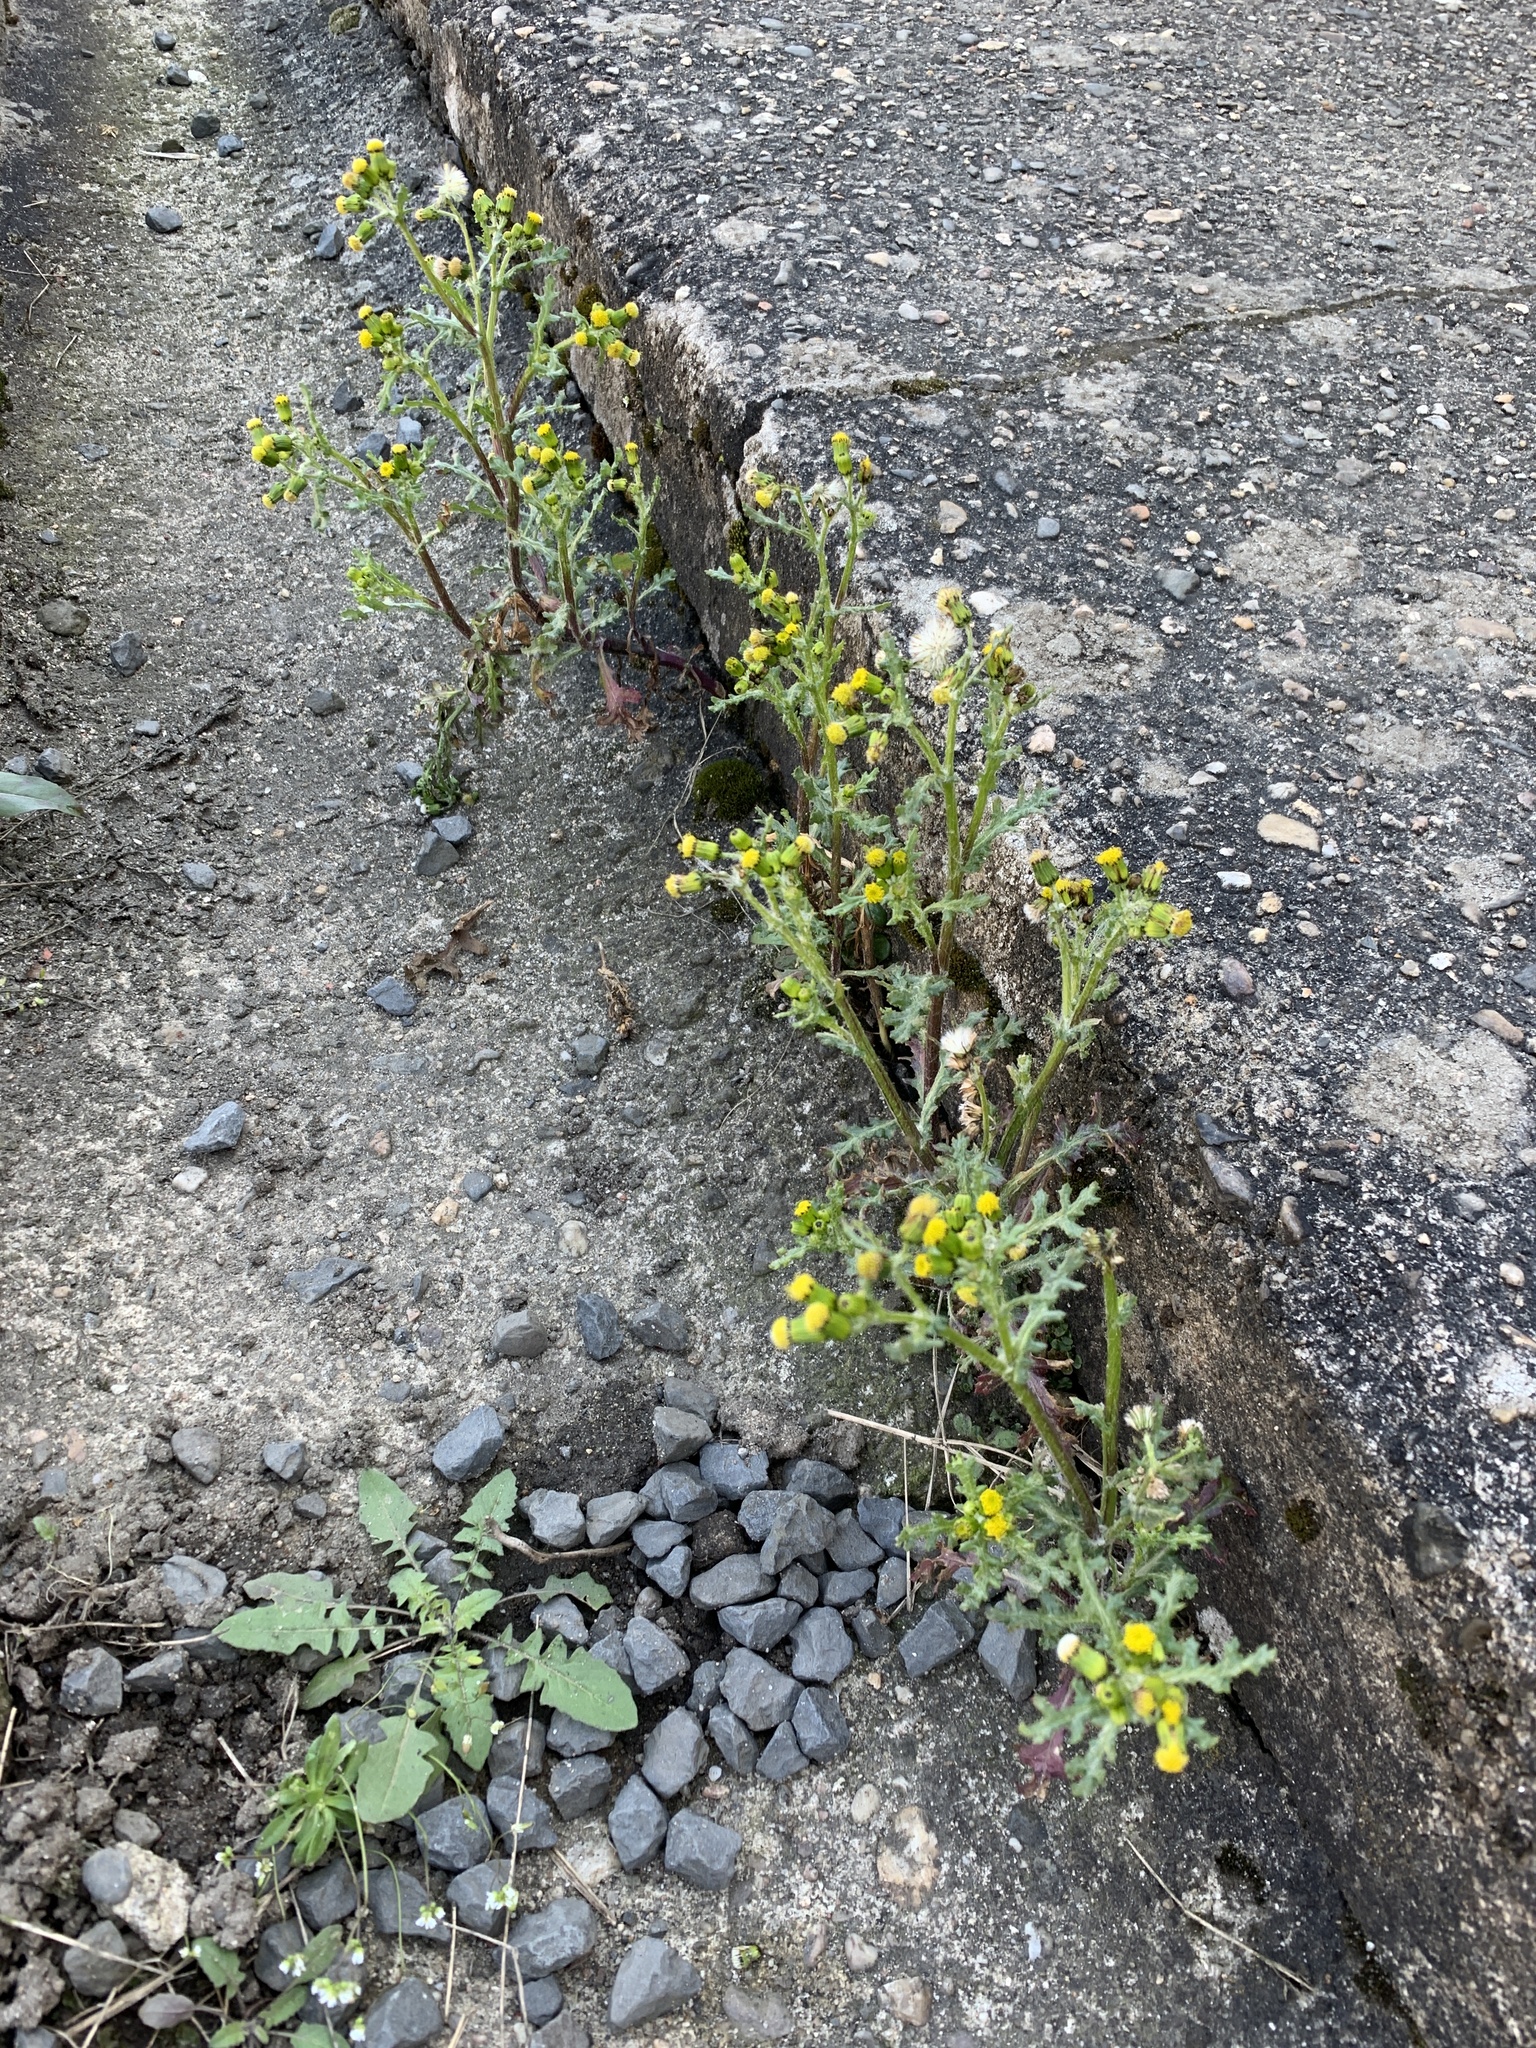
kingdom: Plantae
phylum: Tracheophyta
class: Magnoliopsida
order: Asterales
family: Asteraceae
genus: Senecio
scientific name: Senecio vulgaris
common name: Old-man-in-the-spring
